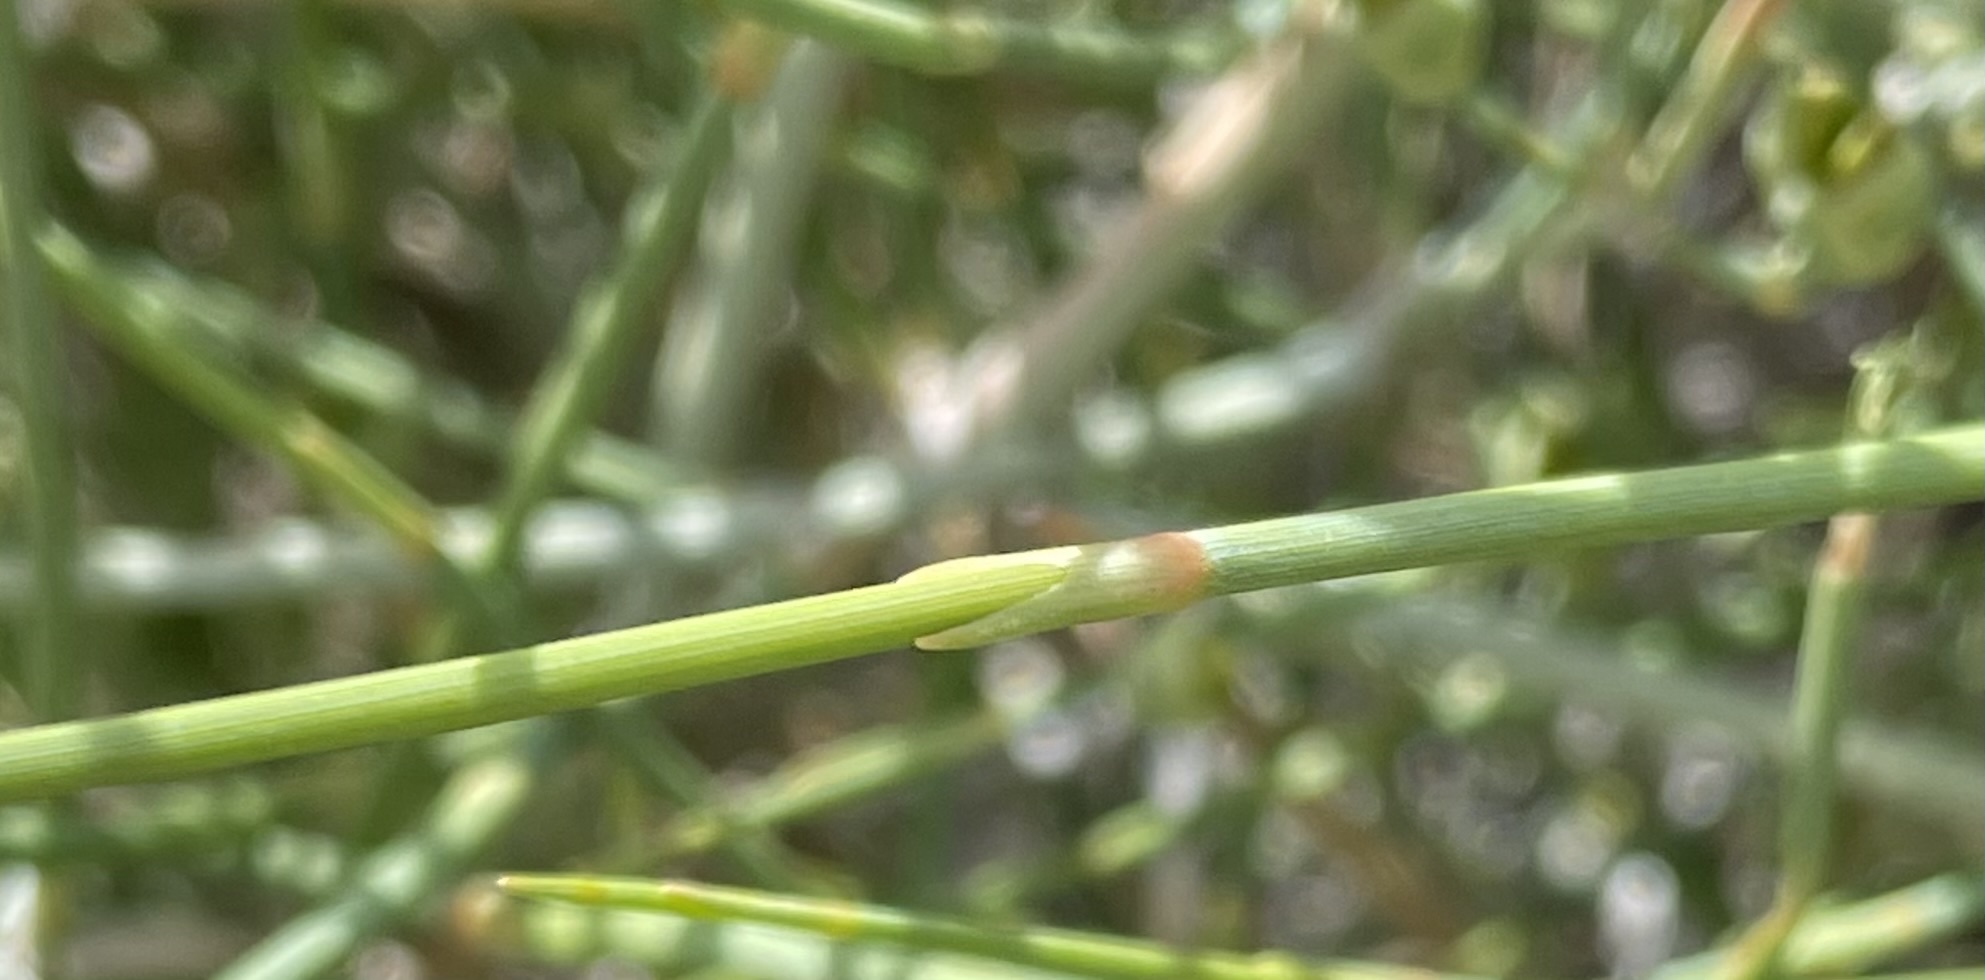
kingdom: Plantae
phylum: Tracheophyta
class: Gnetopsida
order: Ephedrales
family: Ephedraceae
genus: Ephedra
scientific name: Ephedra nevadensis
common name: Gray ephedra
